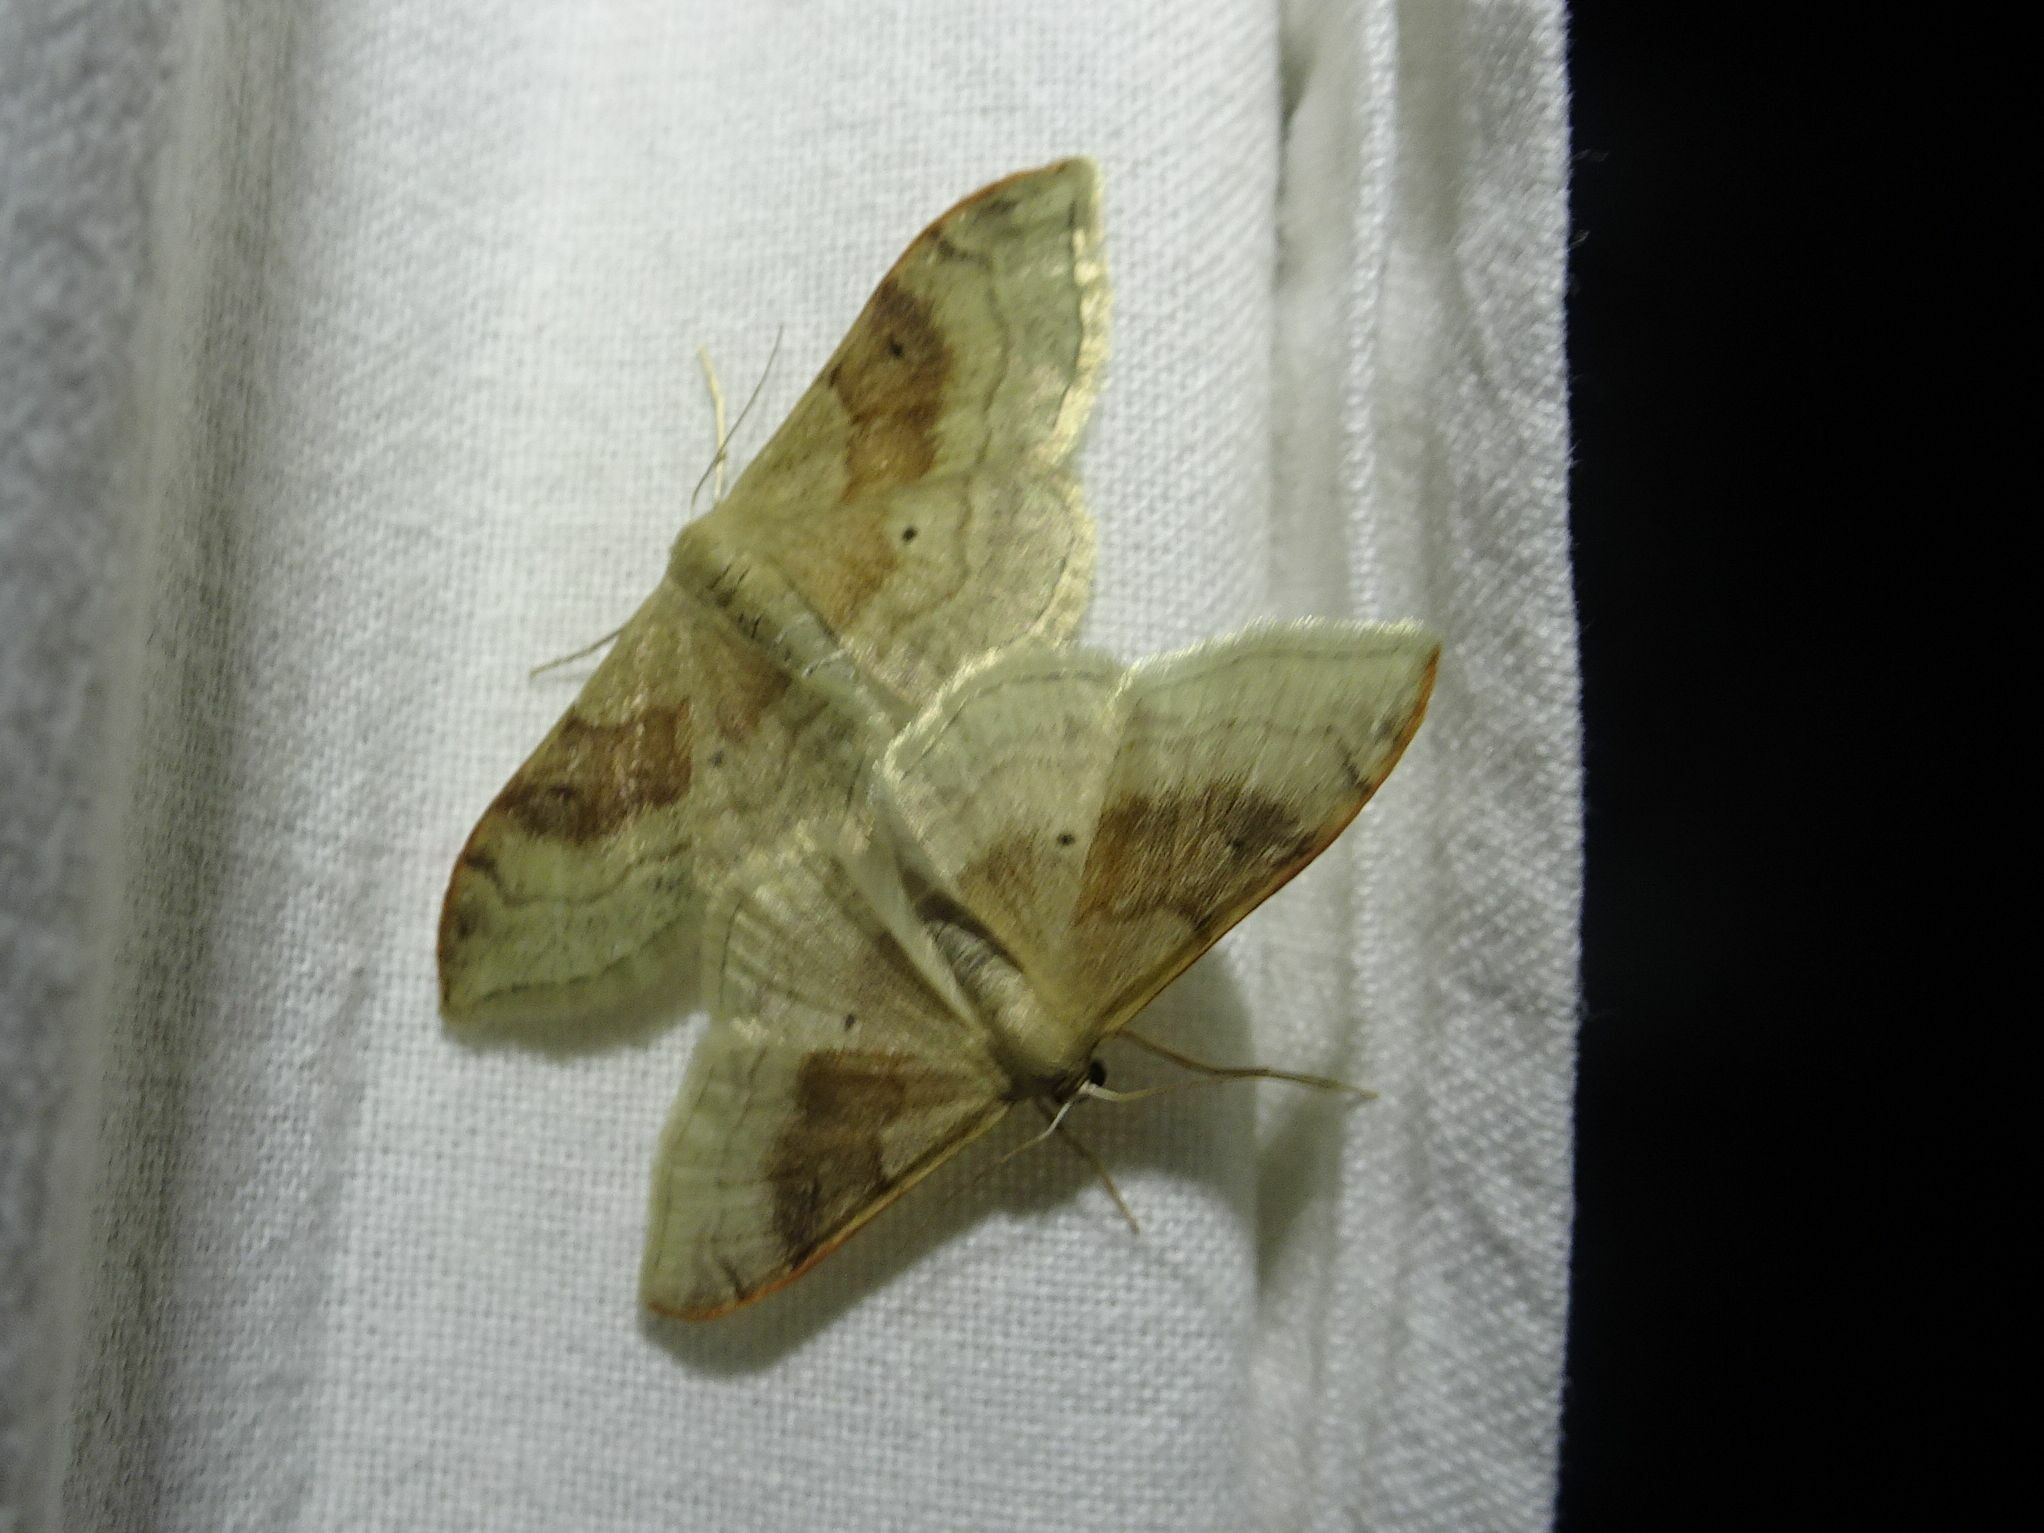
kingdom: Animalia
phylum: Arthropoda
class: Insecta
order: Lepidoptera
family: Geometridae
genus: Idaea
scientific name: Idaea degeneraria
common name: Portland ribbon wave
